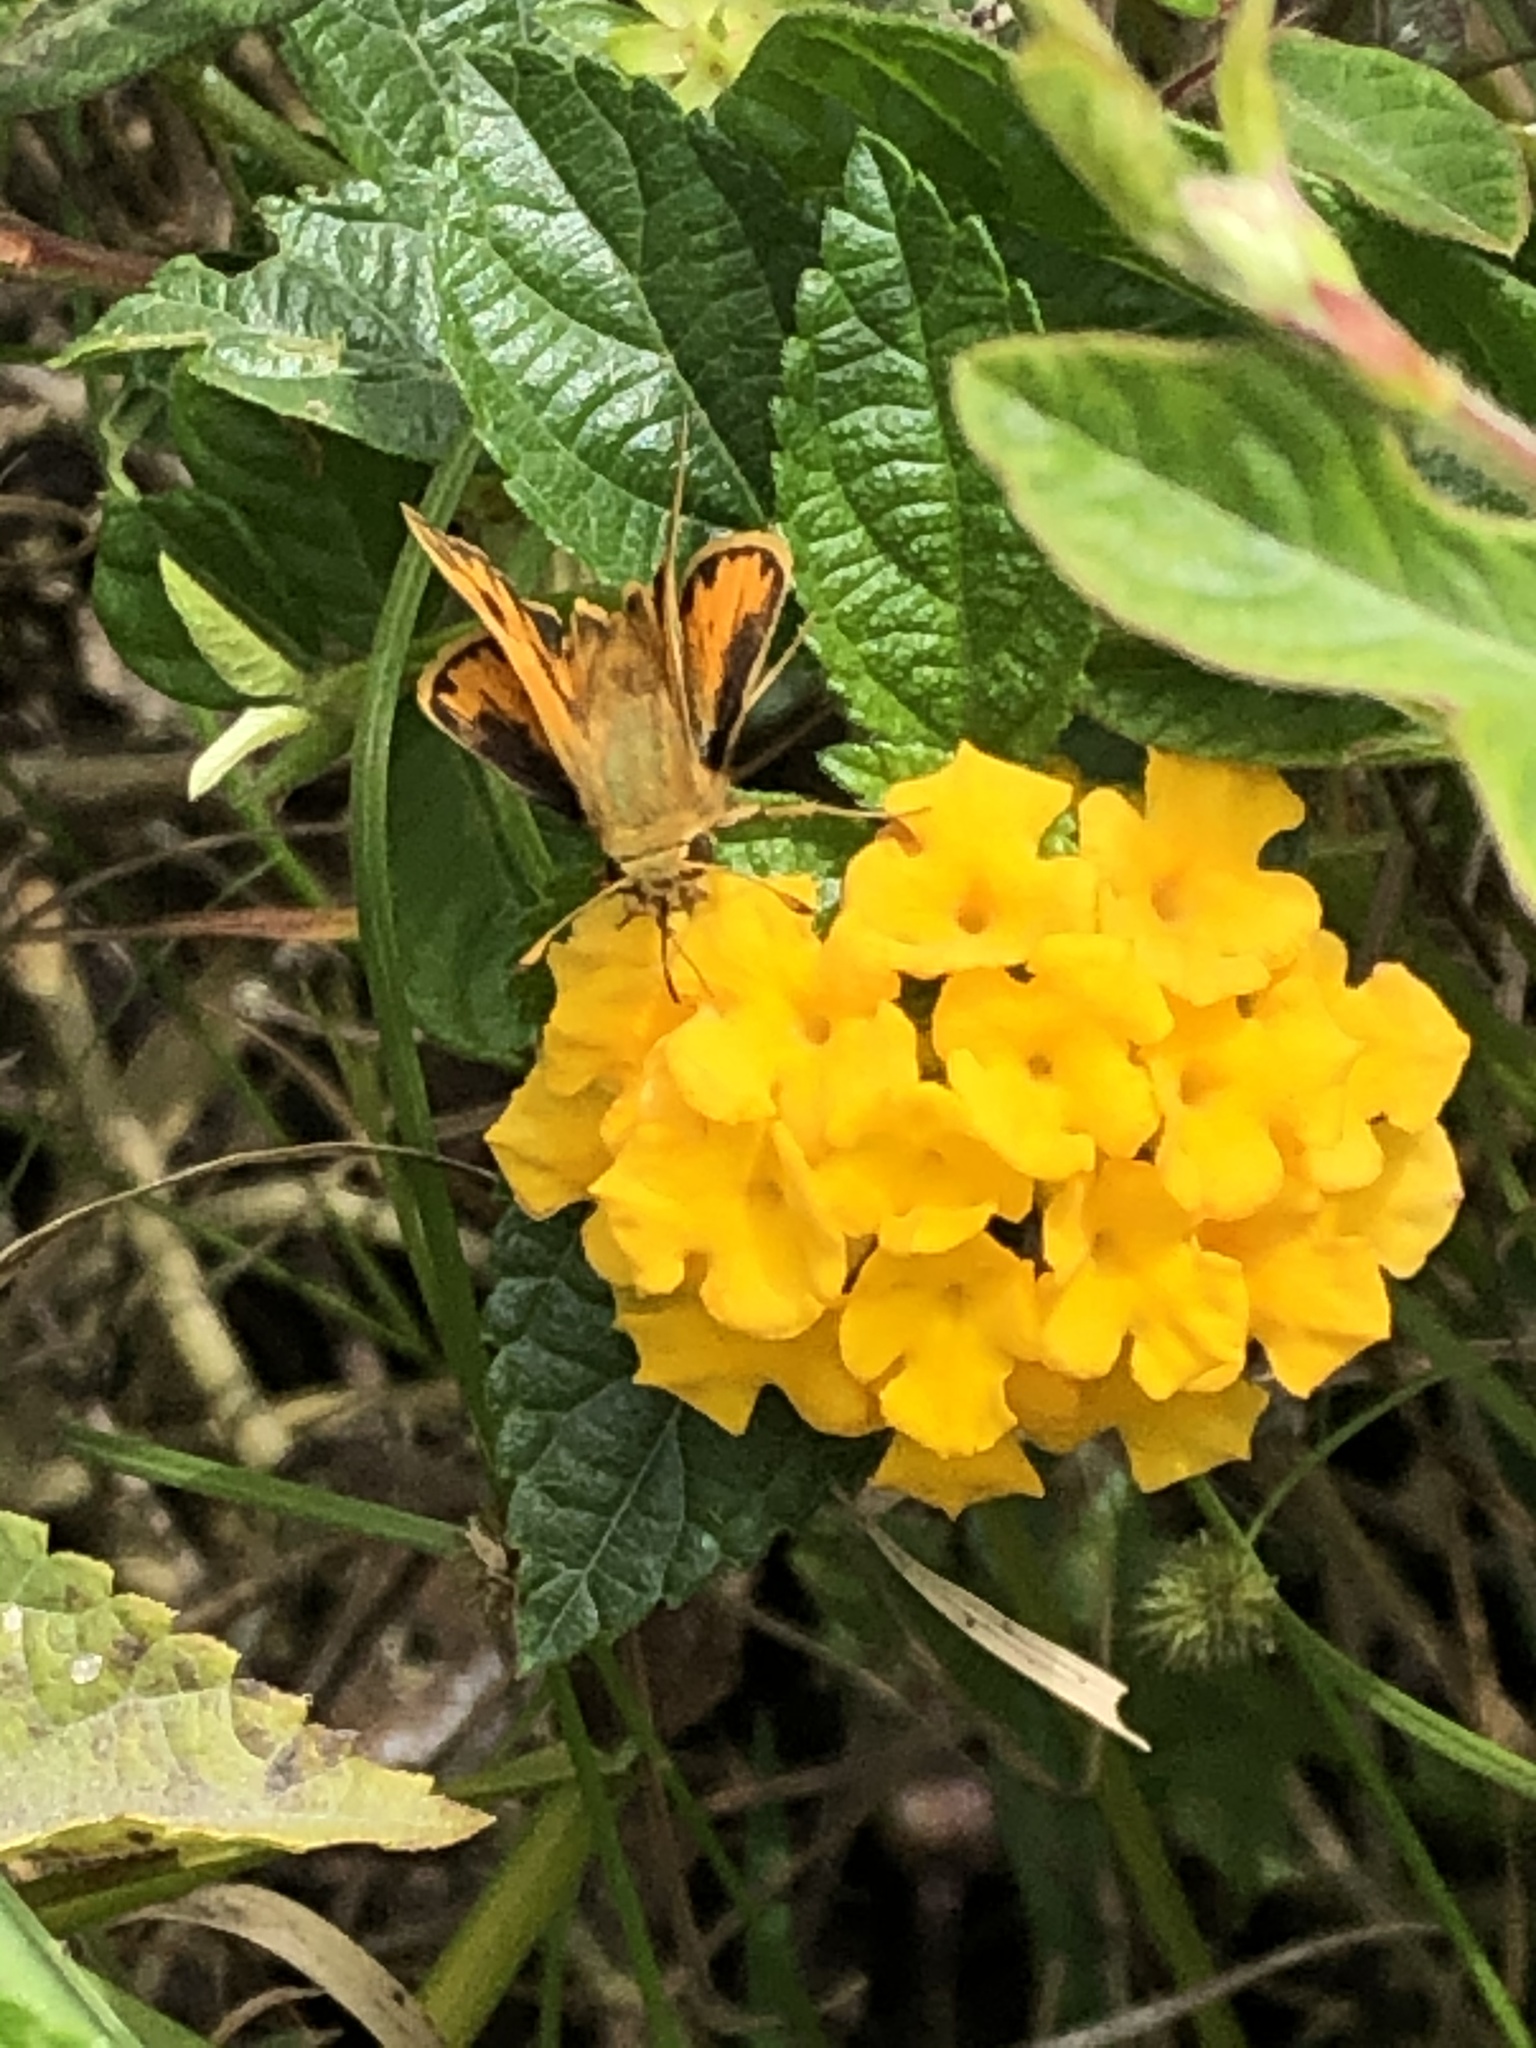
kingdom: Animalia
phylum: Arthropoda
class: Insecta
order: Lepidoptera
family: Hesperiidae
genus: Hylephila
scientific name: Hylephila phyleus
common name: Fiery skipper
